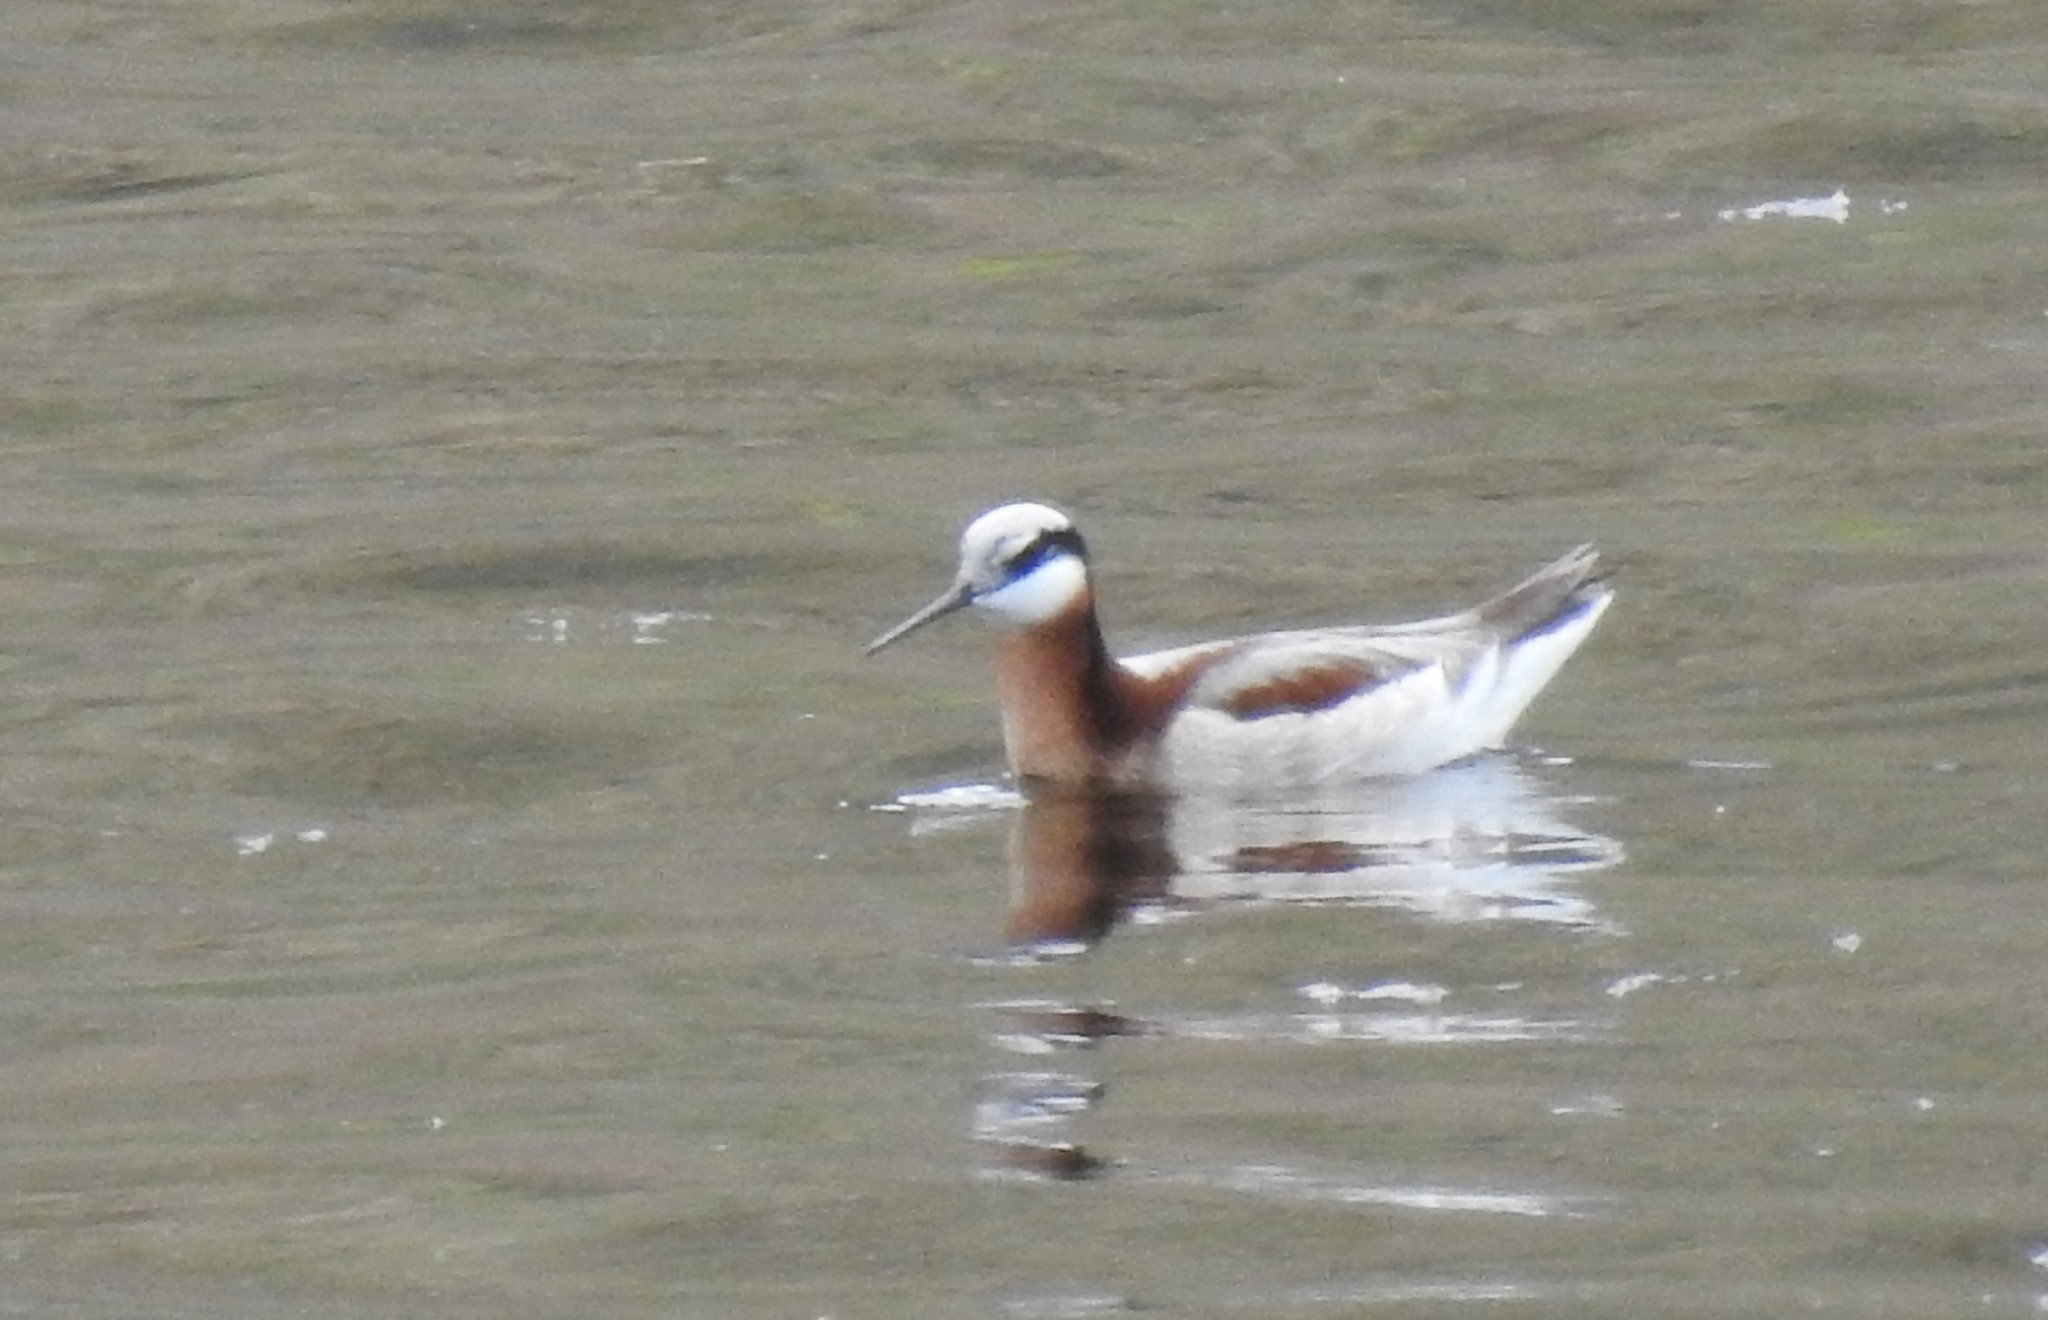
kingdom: Animalia
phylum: Chordata
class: Aves
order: Charadriiformes
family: Scolopacidae
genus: Phalaropus
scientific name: Phalaropus tricolor
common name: Wilson's phalarope
